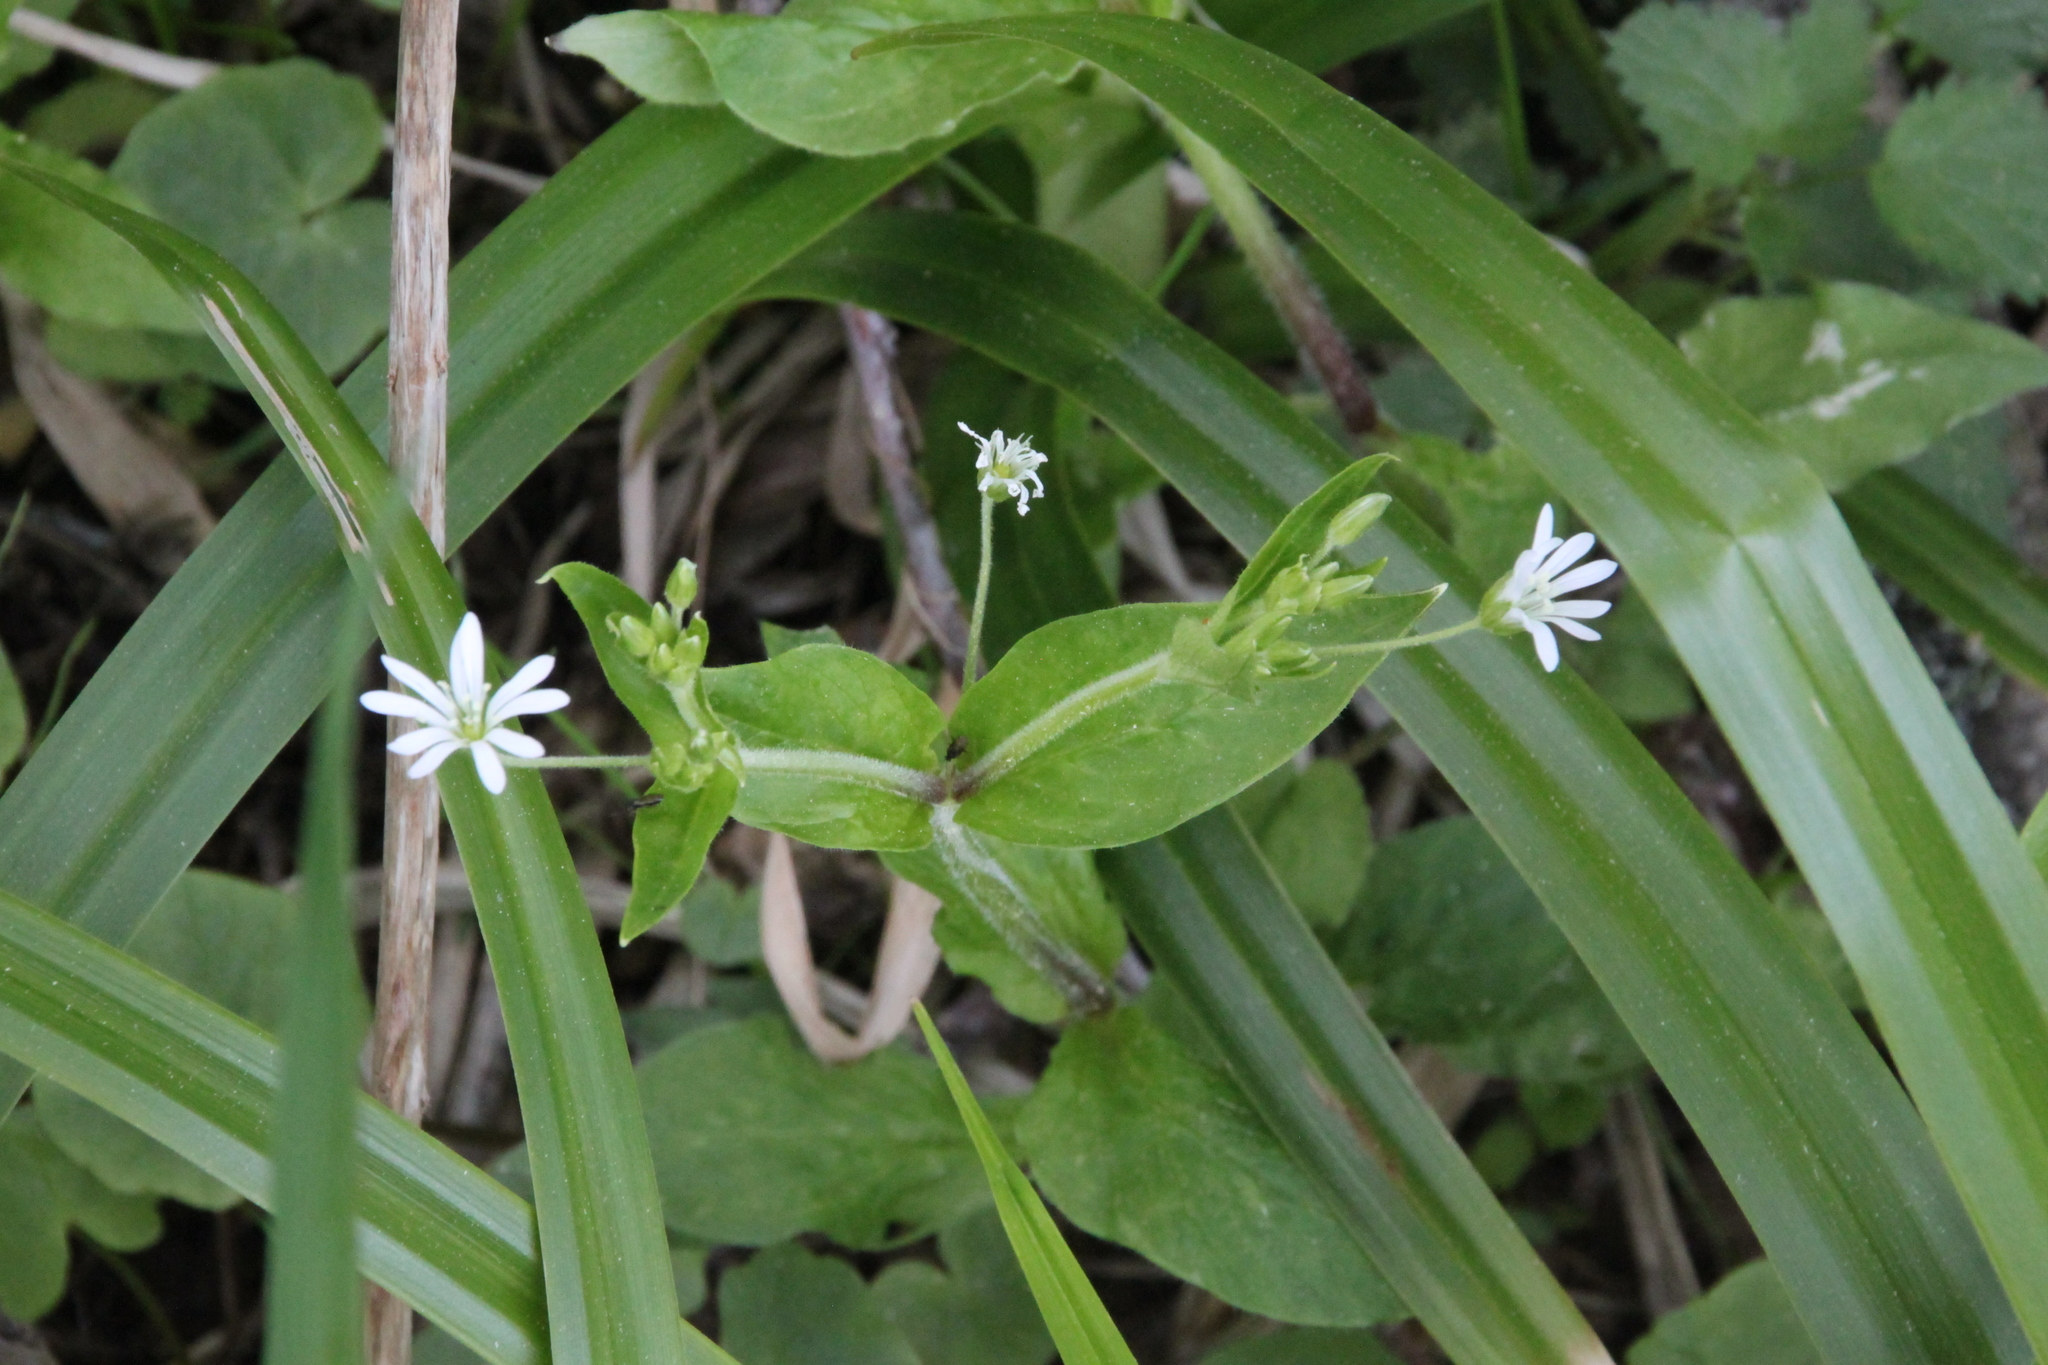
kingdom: Plantae
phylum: Tracheophyta
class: Magnoliopsida
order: Caryophyllales
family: Caryophyllaceae
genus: Stellaria
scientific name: Stellaria nemorum
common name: Wood stitchwort
